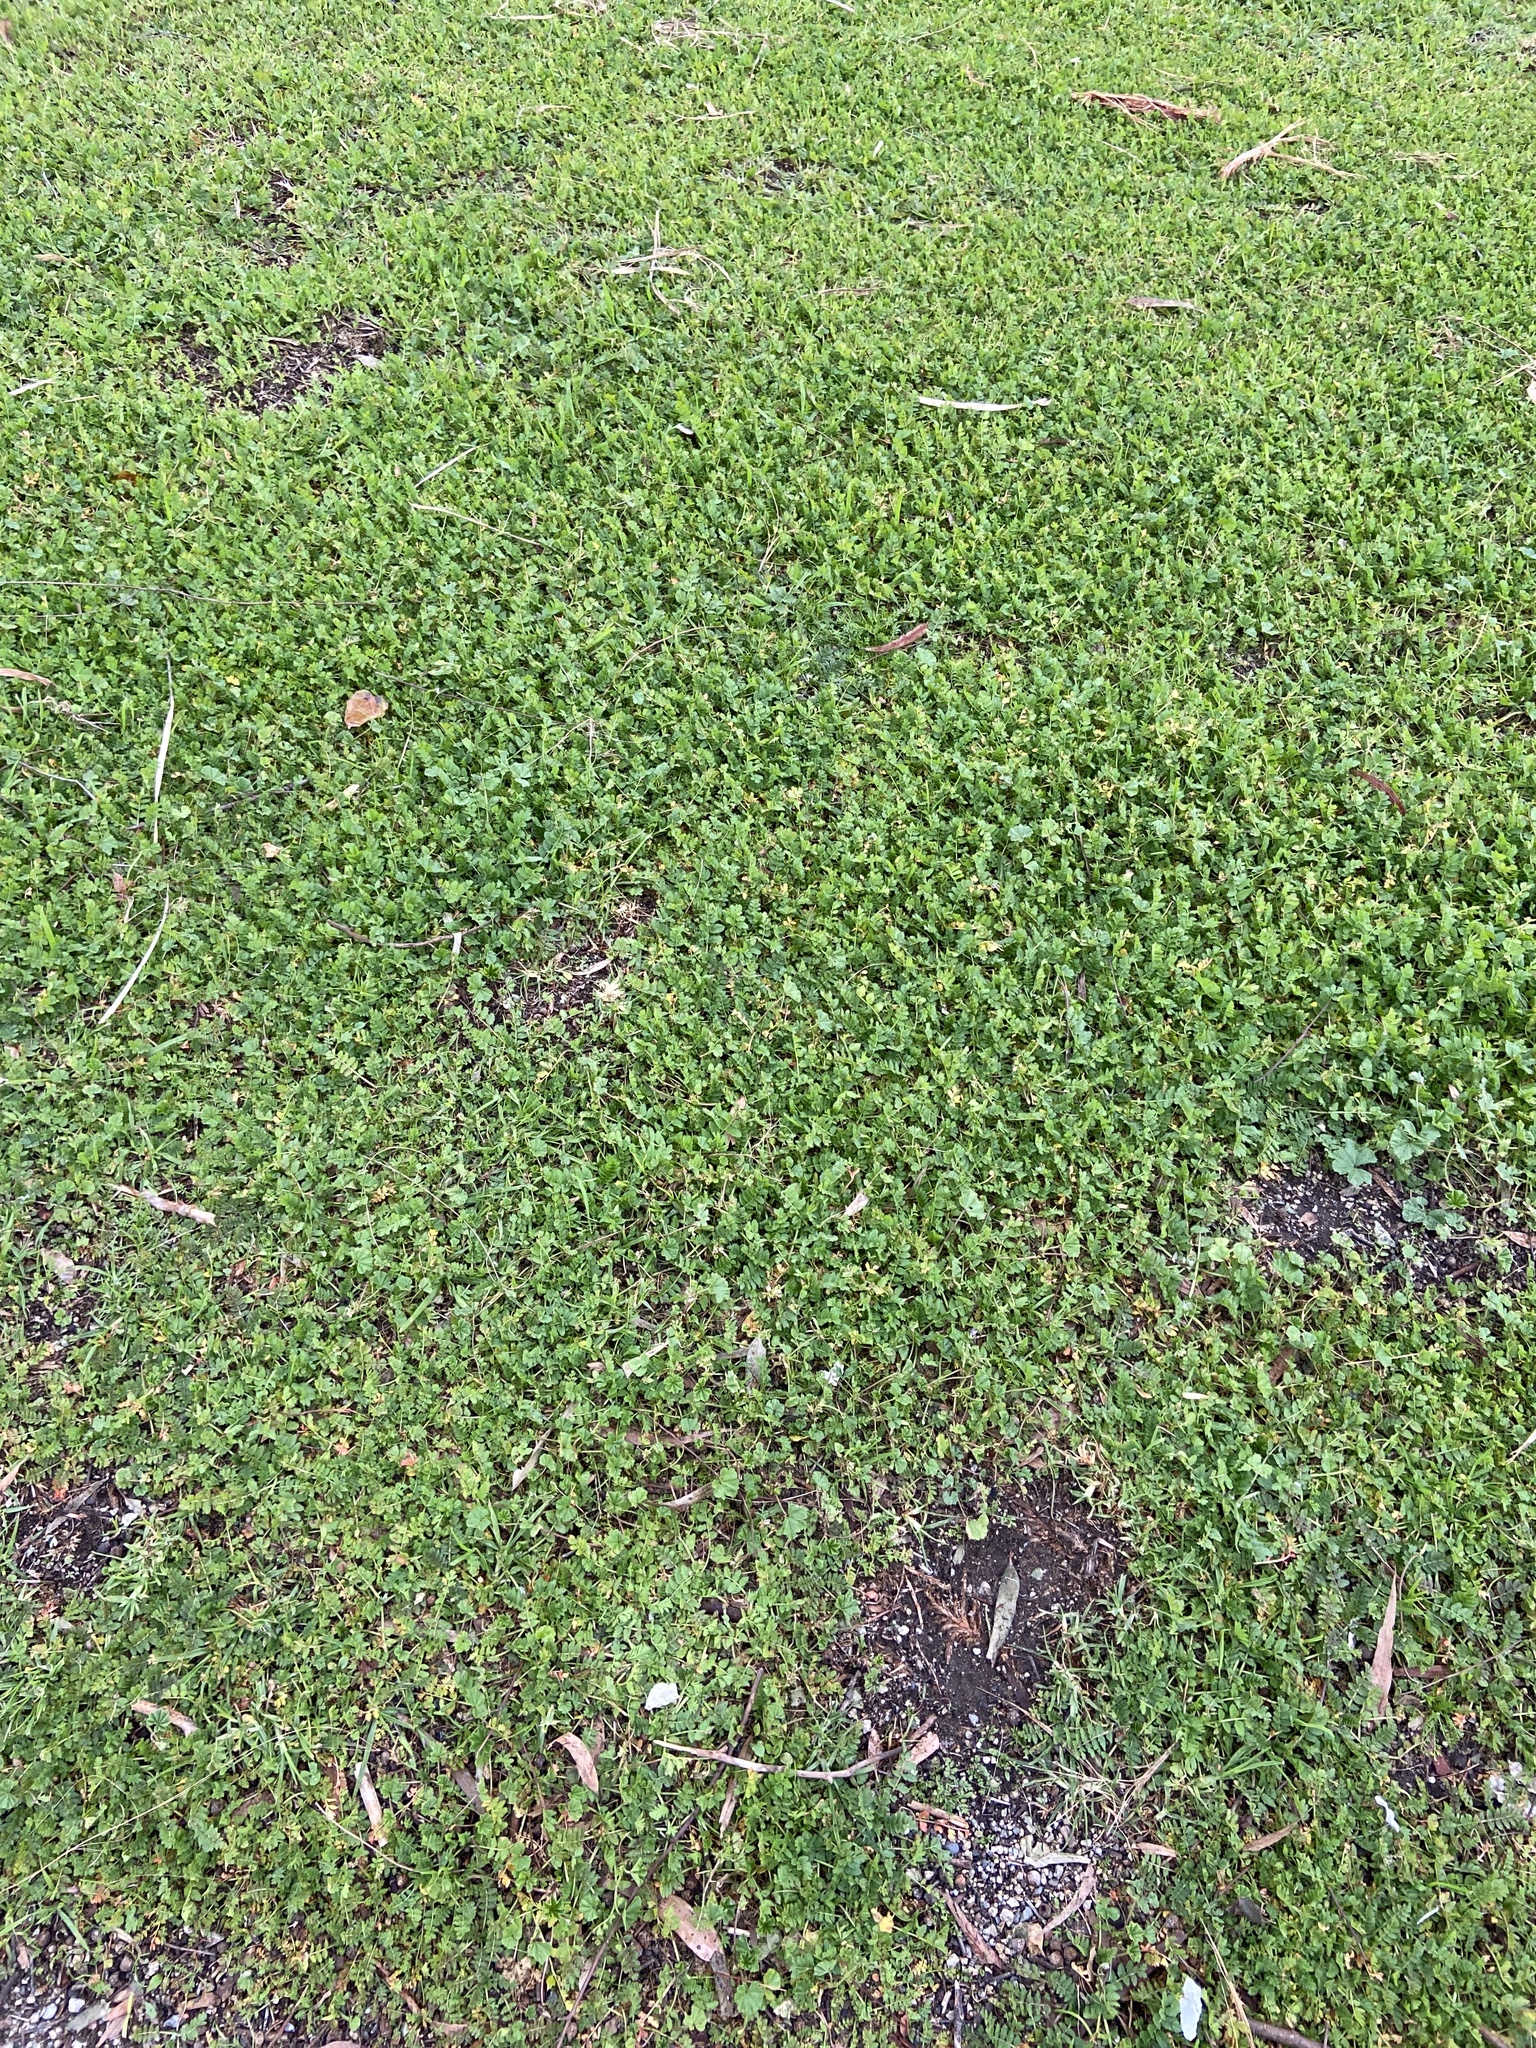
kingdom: Plantae
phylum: Tracheophyta
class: Magnoliopsida
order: Geraniales
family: Geraniaceae
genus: Erodium
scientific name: Erodium moschatum
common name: Musk stork's-bill
